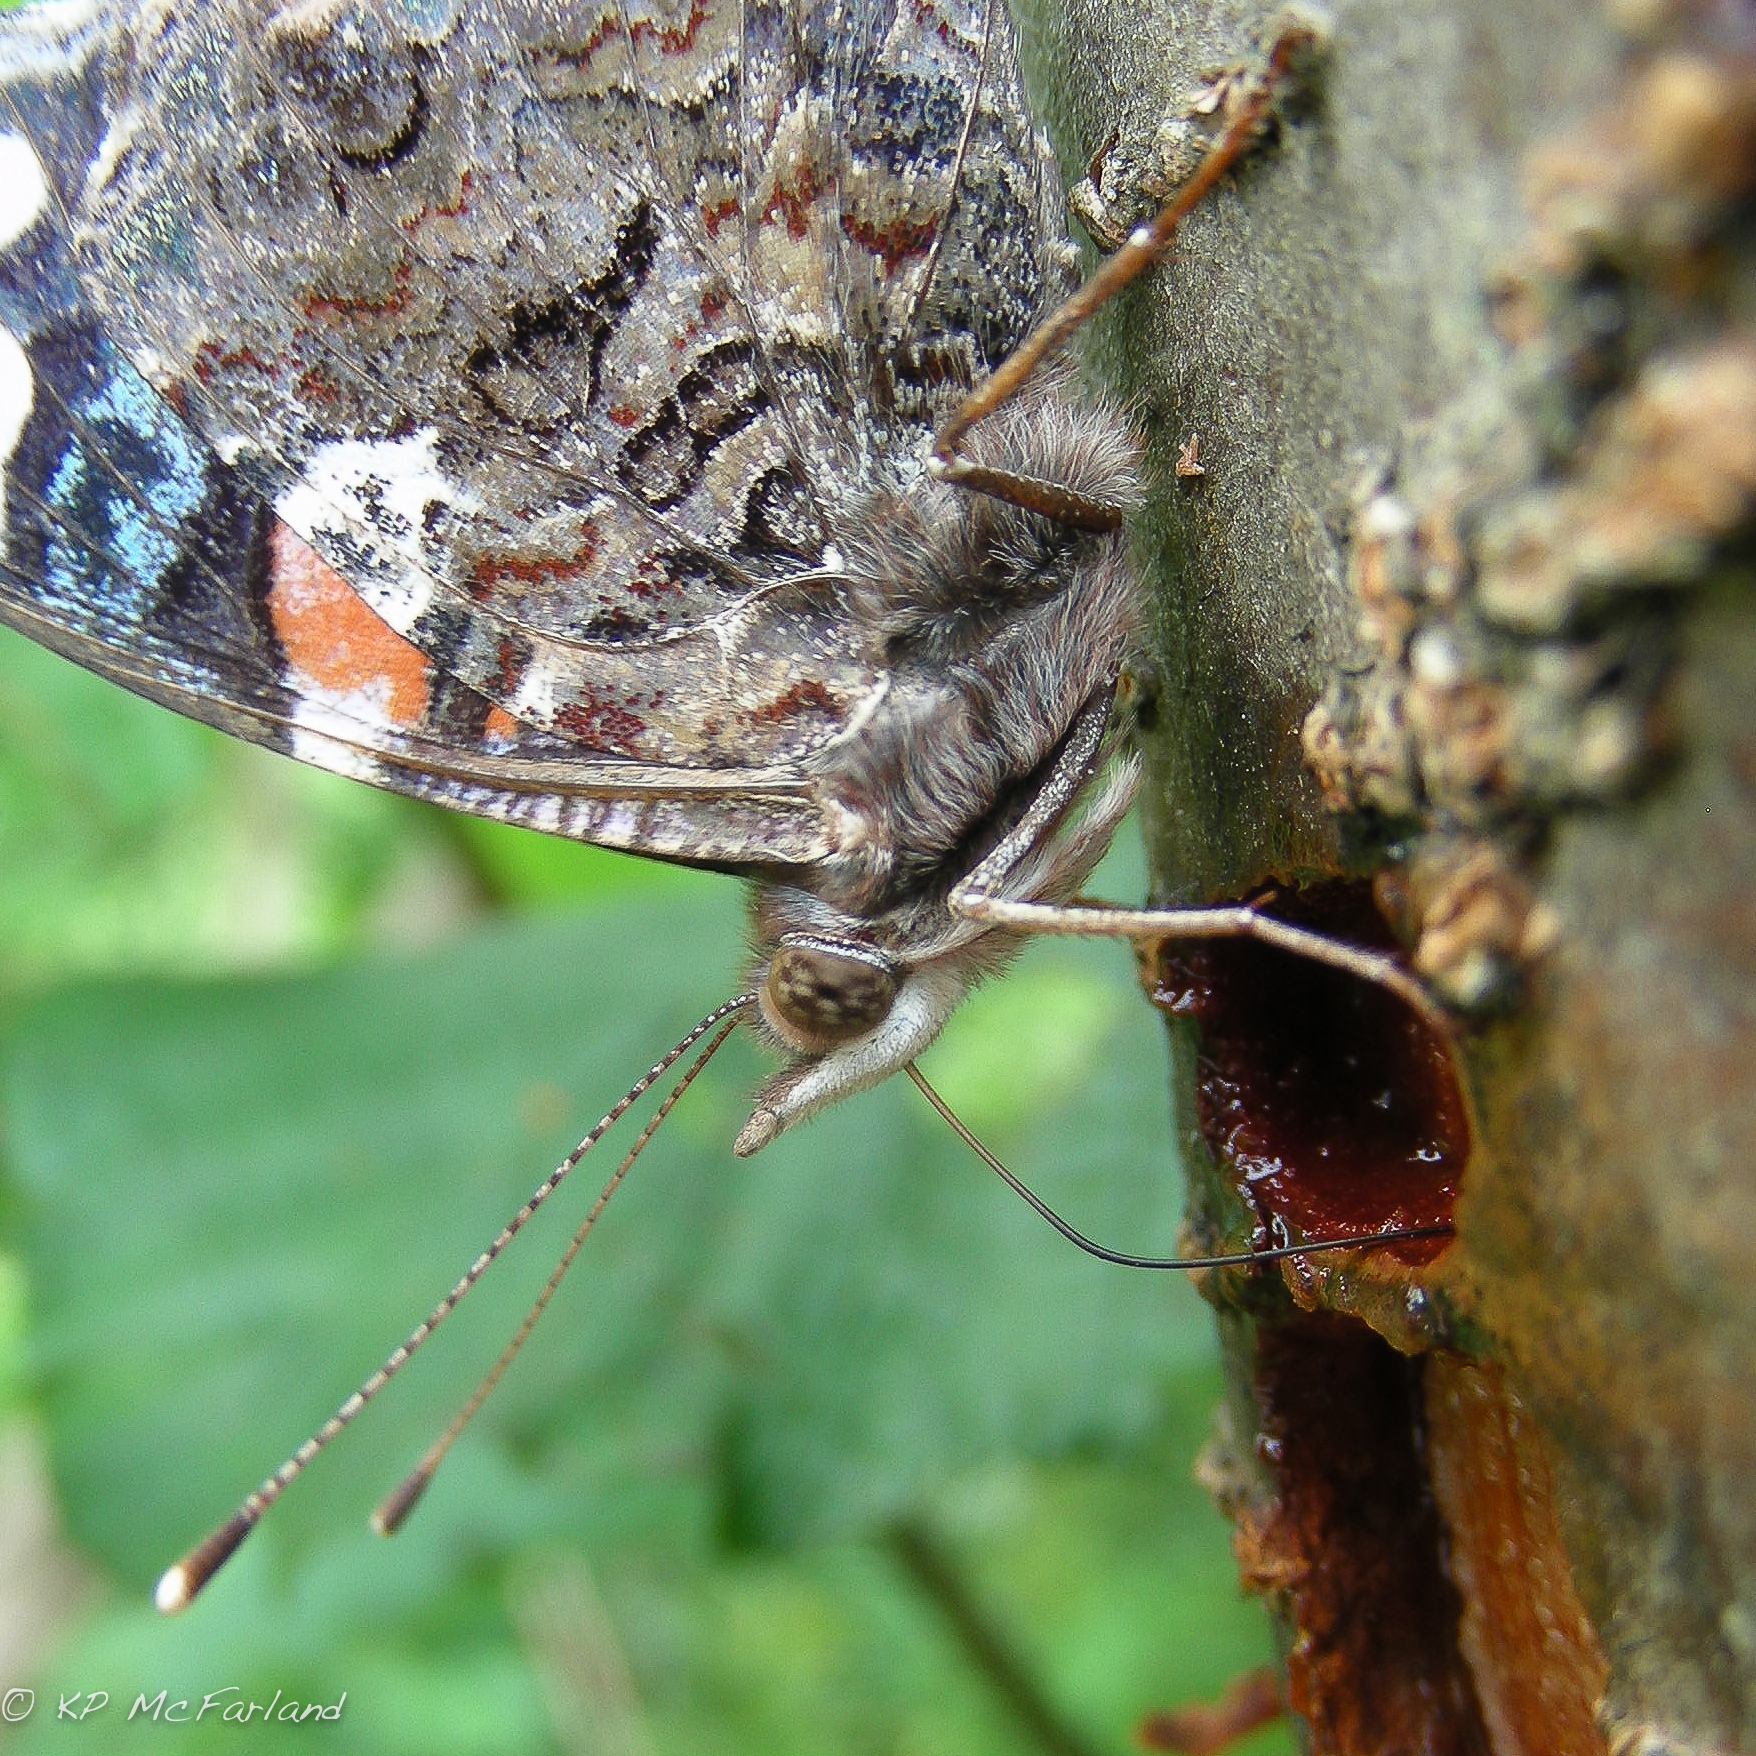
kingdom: Animalia
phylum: Arthropoda
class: Insecta
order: Lepidoptera
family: Nymphalidae
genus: Vanessa
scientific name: Vanessa atalanta
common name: Red admiral
